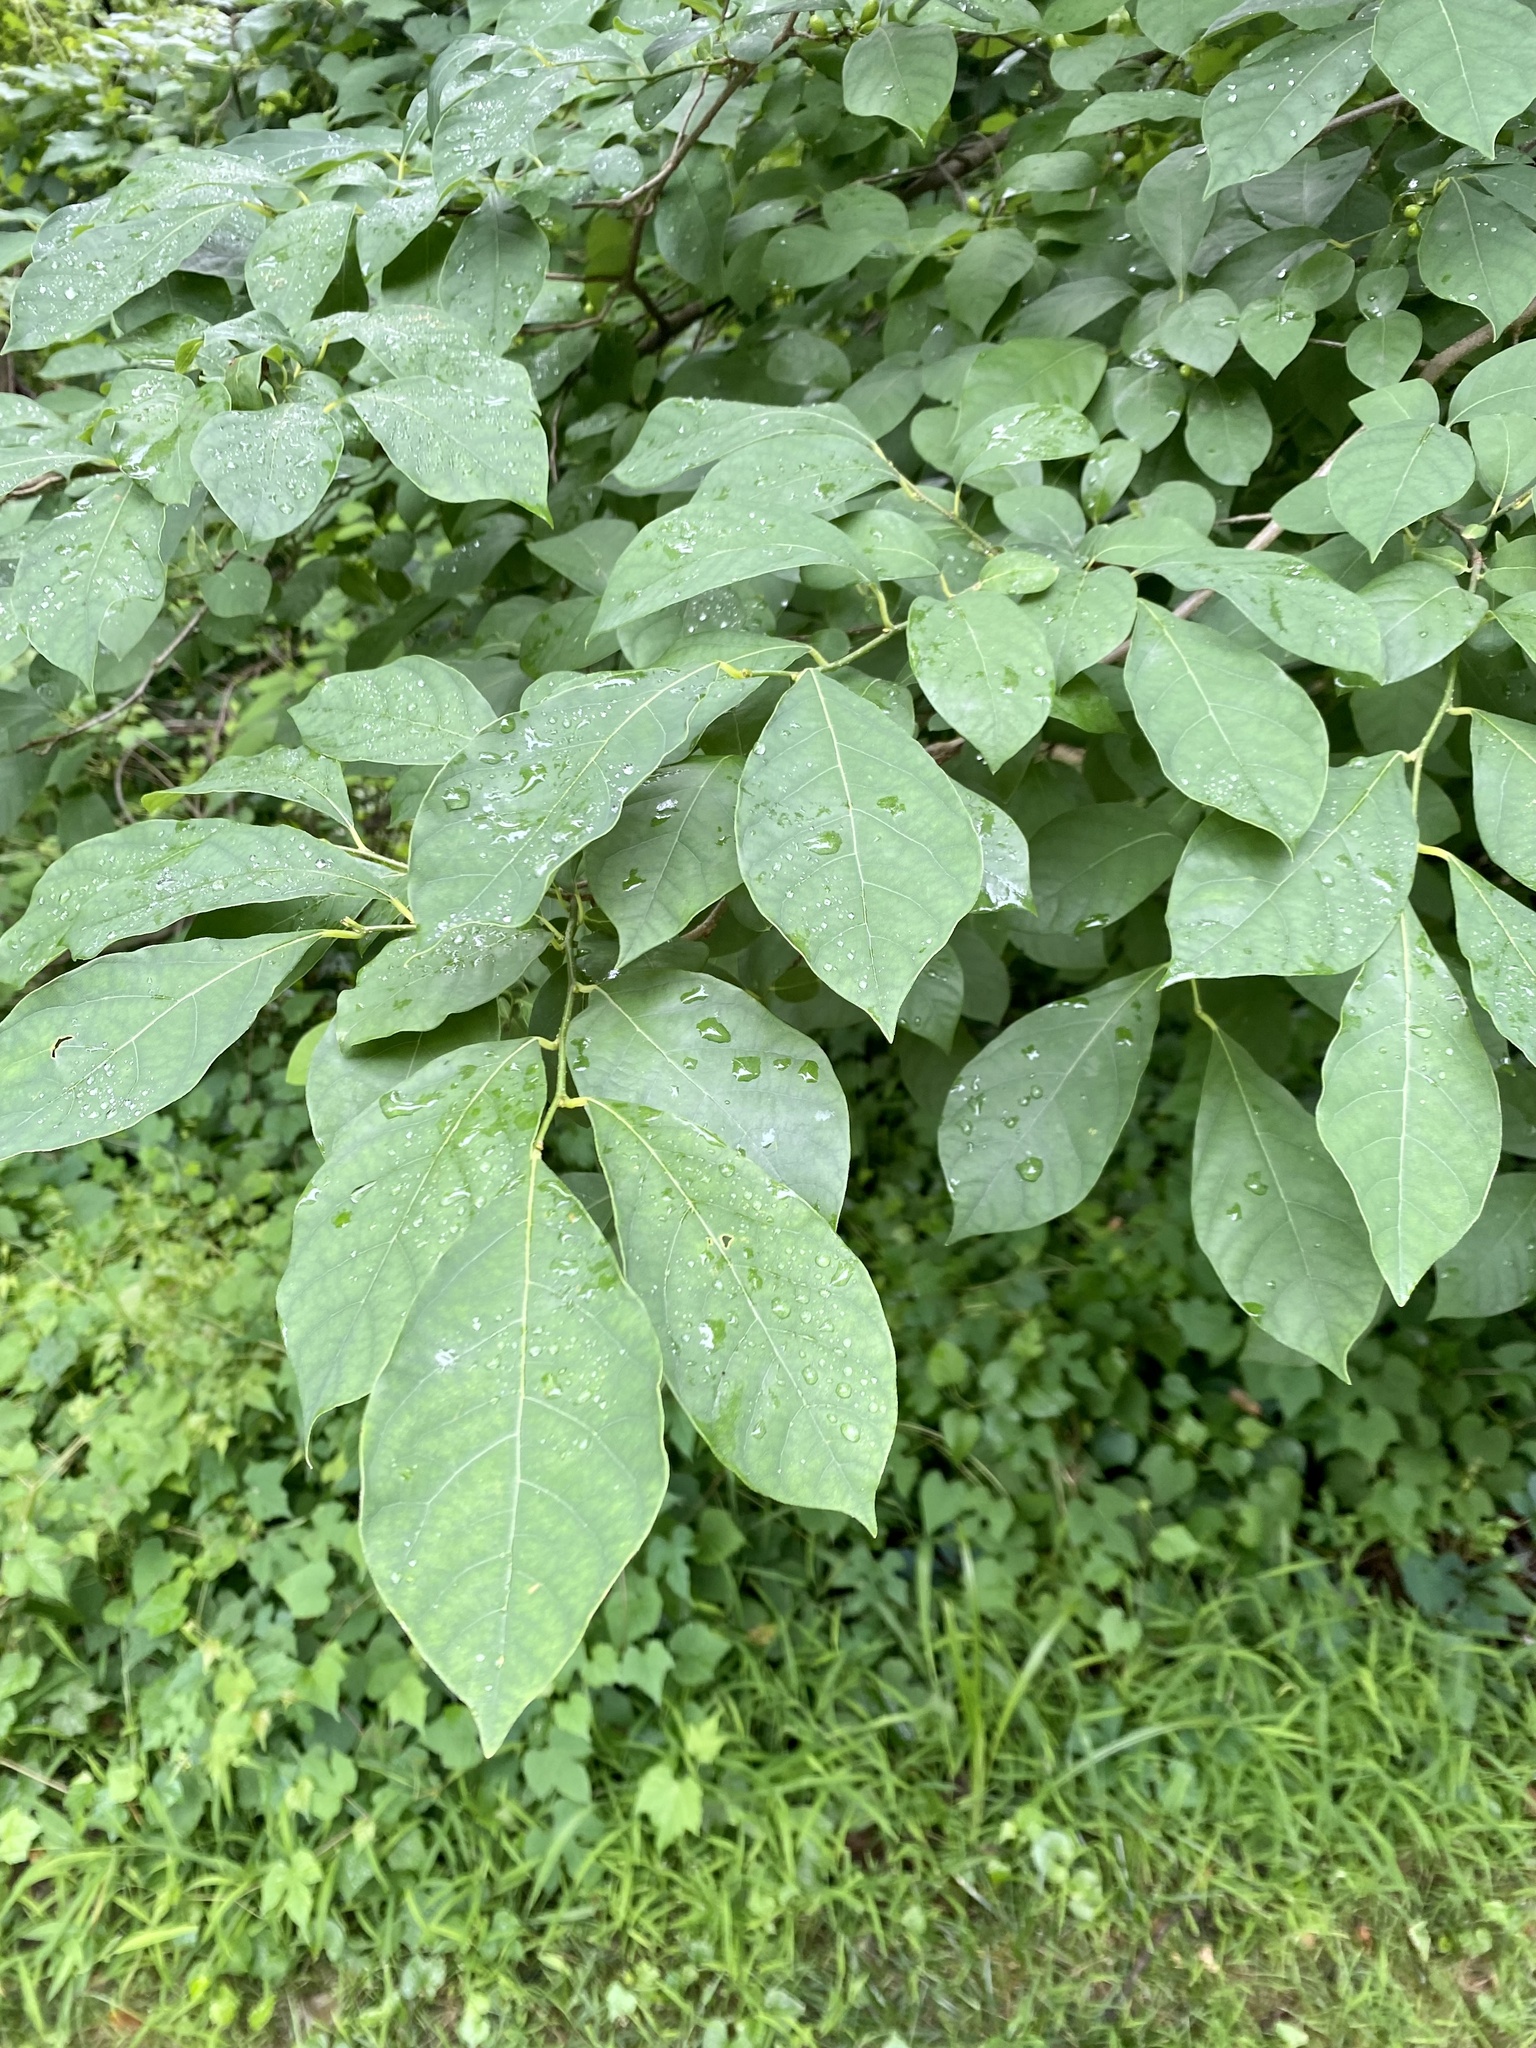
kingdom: Plantae
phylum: Tracheophyta
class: Magnoliopsida
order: Laurales
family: Lauraceae
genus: Lindera
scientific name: Lindera benzoin
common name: Spicebush
